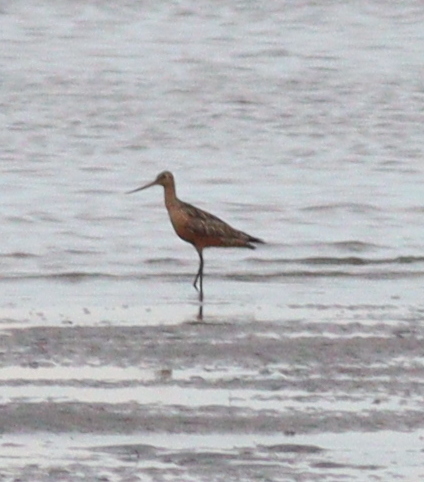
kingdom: Animalia
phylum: Chordata
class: Aves
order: Charadriiformes
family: Scolopacidae
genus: Limosa
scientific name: Limosa lapponica
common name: Bar-tailed godwit
